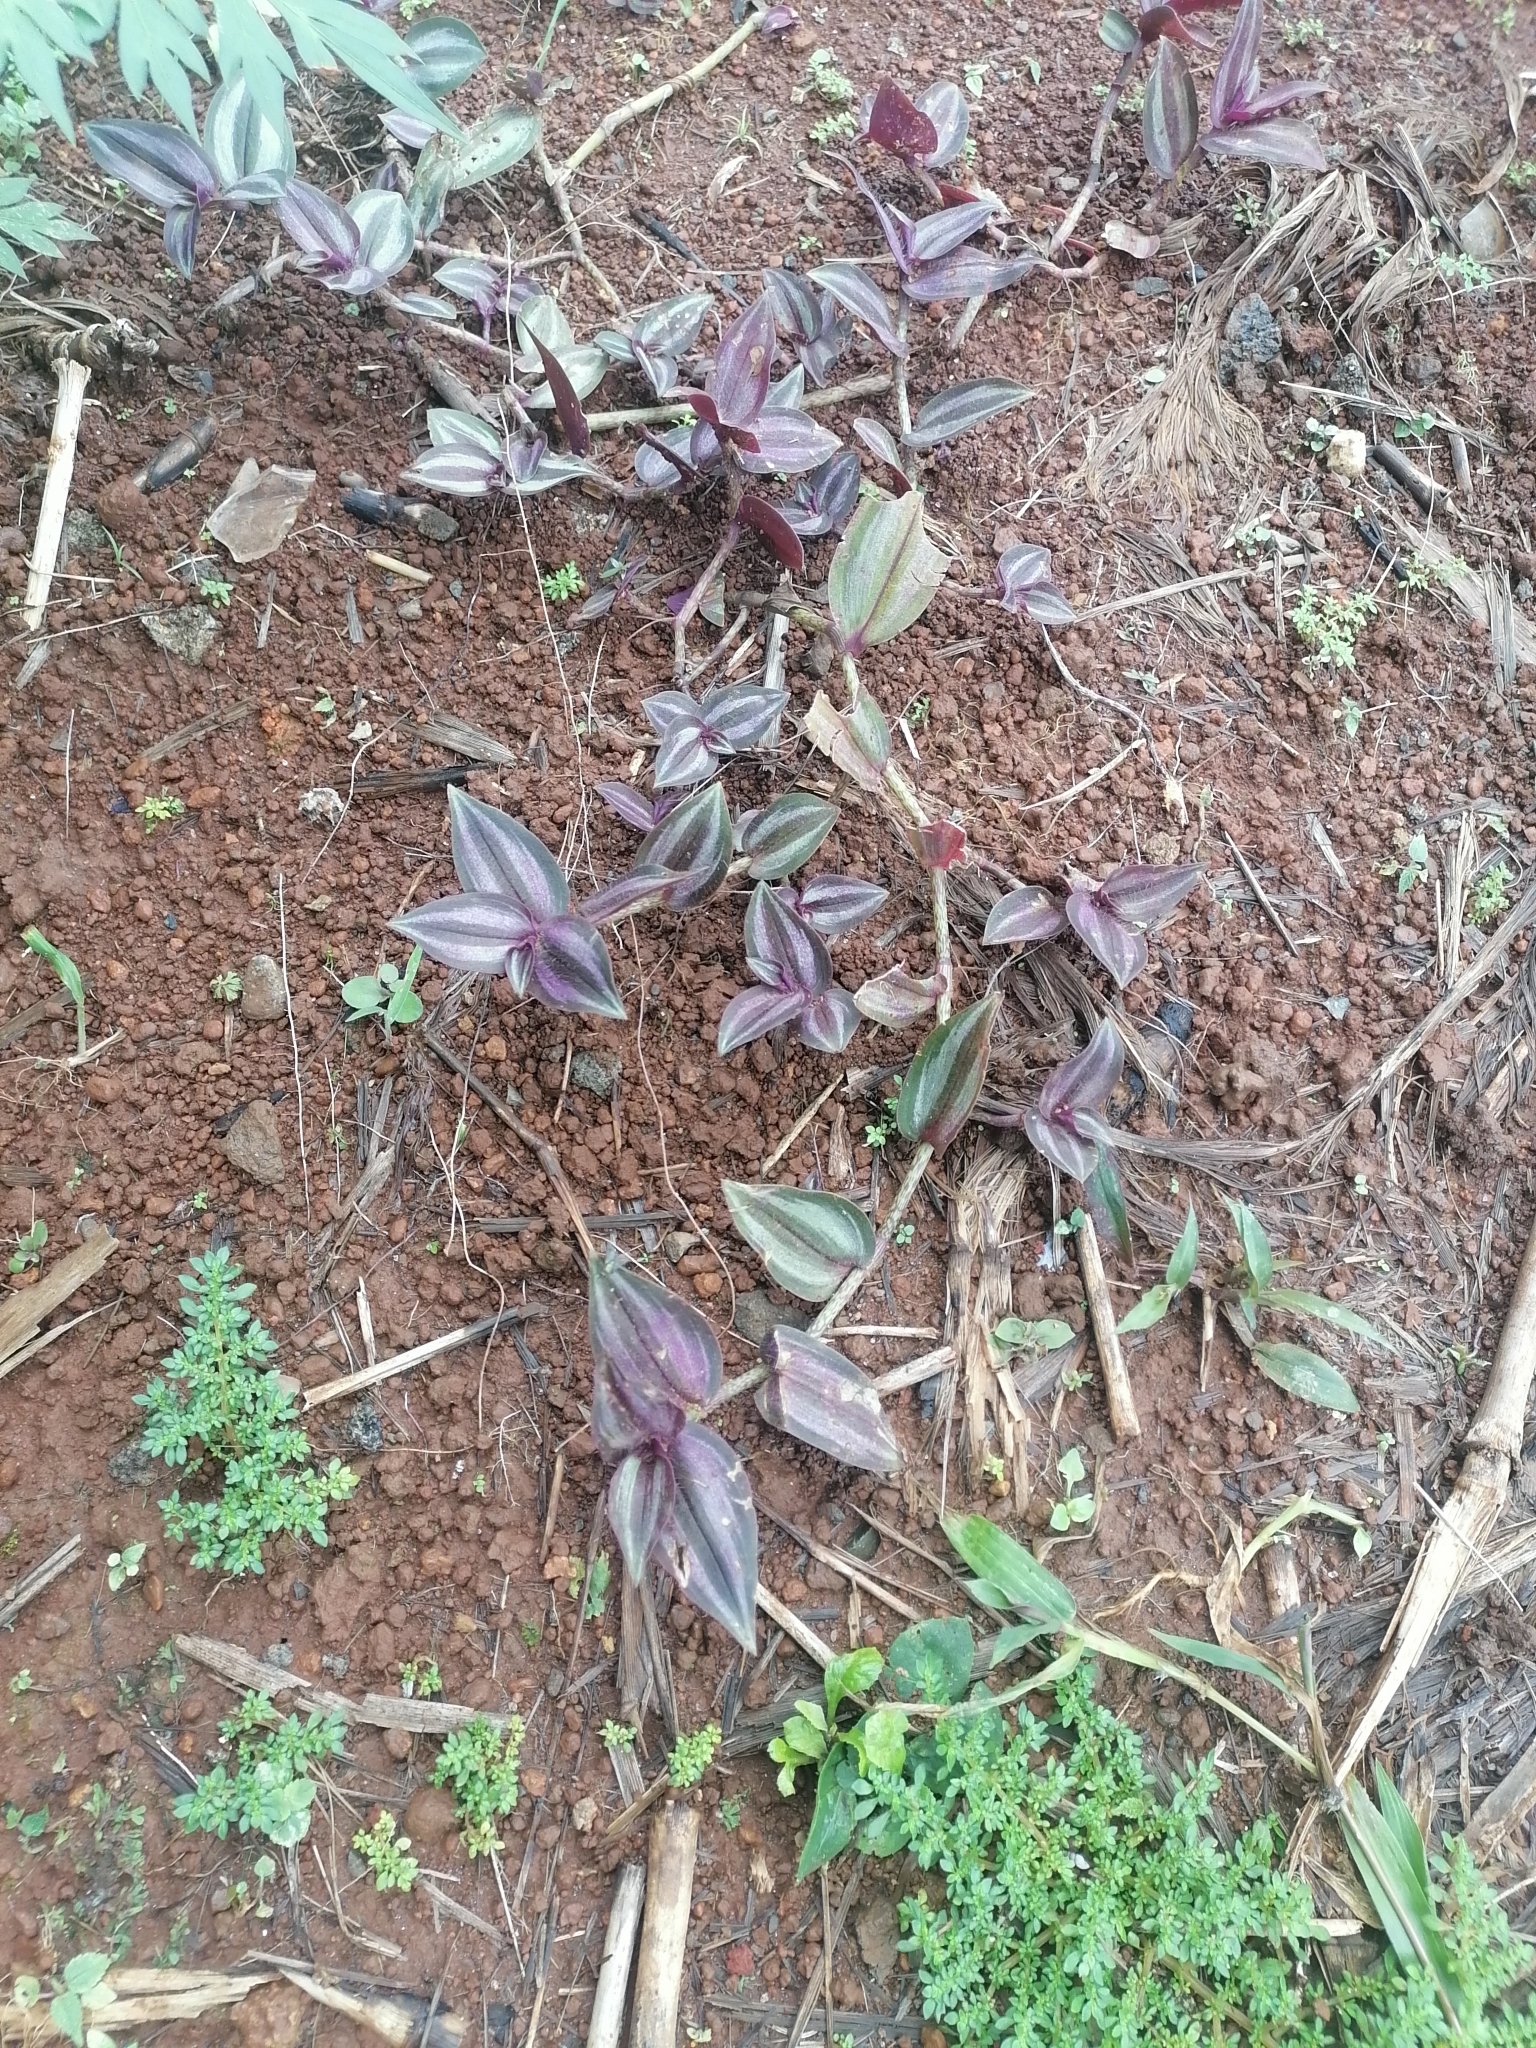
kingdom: Plantae
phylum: Tracheophyta
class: Liliopsida
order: Commelinales
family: Commelinaceae
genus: Tradescantia
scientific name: Tradescantia zebrina
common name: Inchplant
